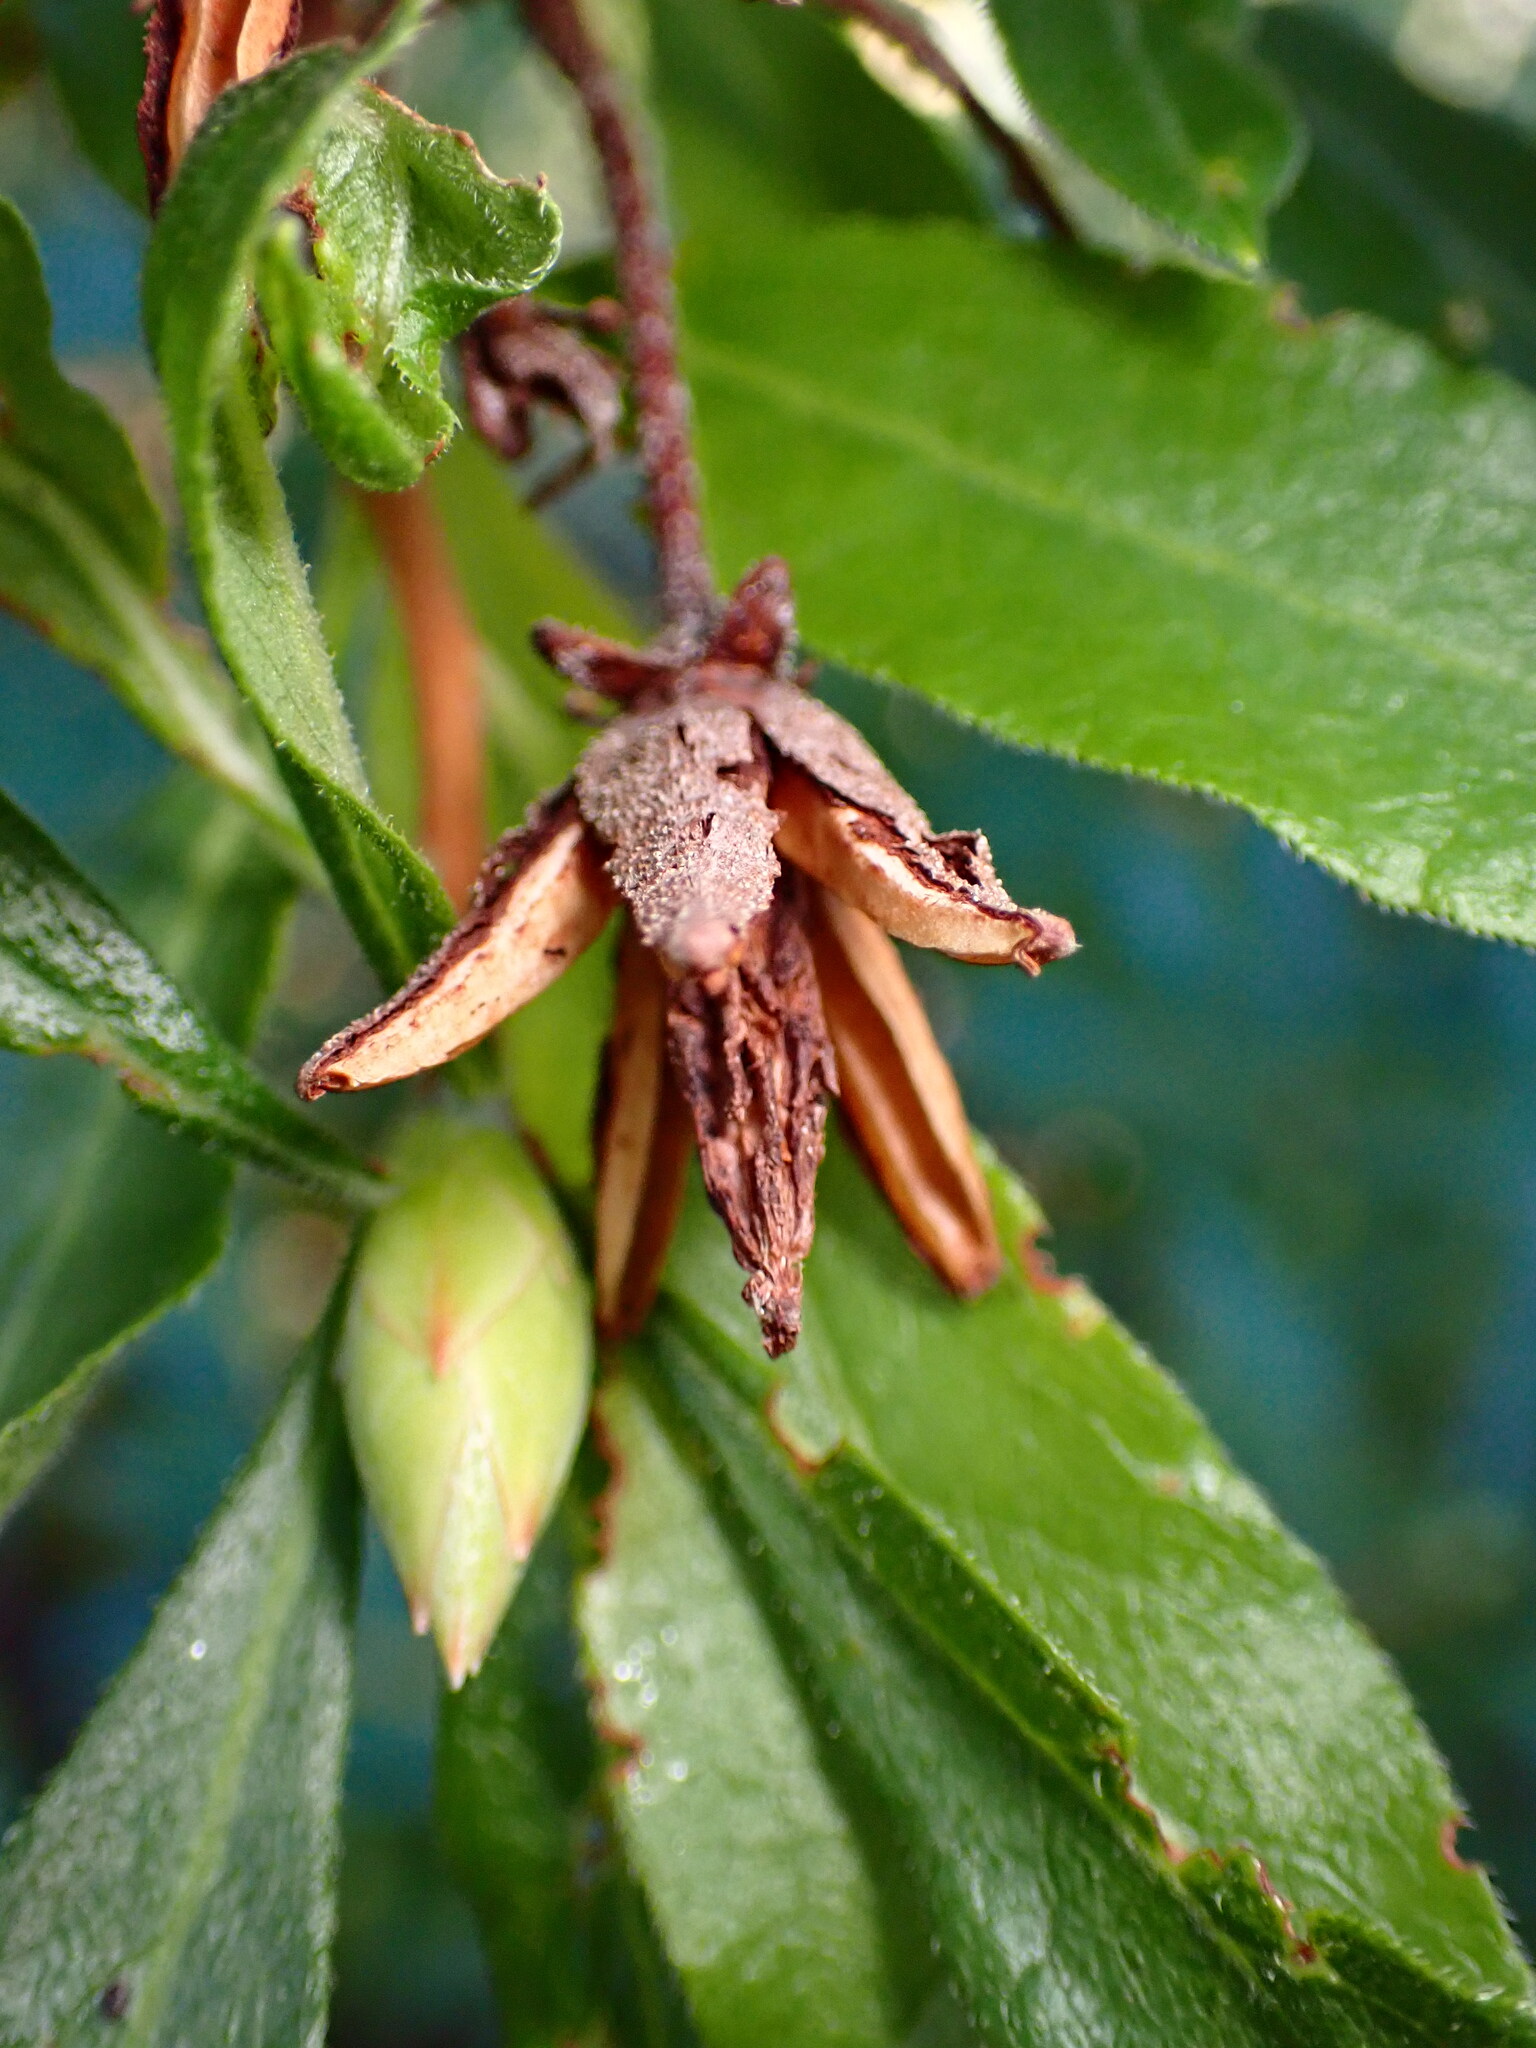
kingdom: Plantae
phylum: Tracheophyta
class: Magnoliopsida
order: Ericales
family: Ericaceae
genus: Rhododendron
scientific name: Rhododendron occidentale
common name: Western azalea
